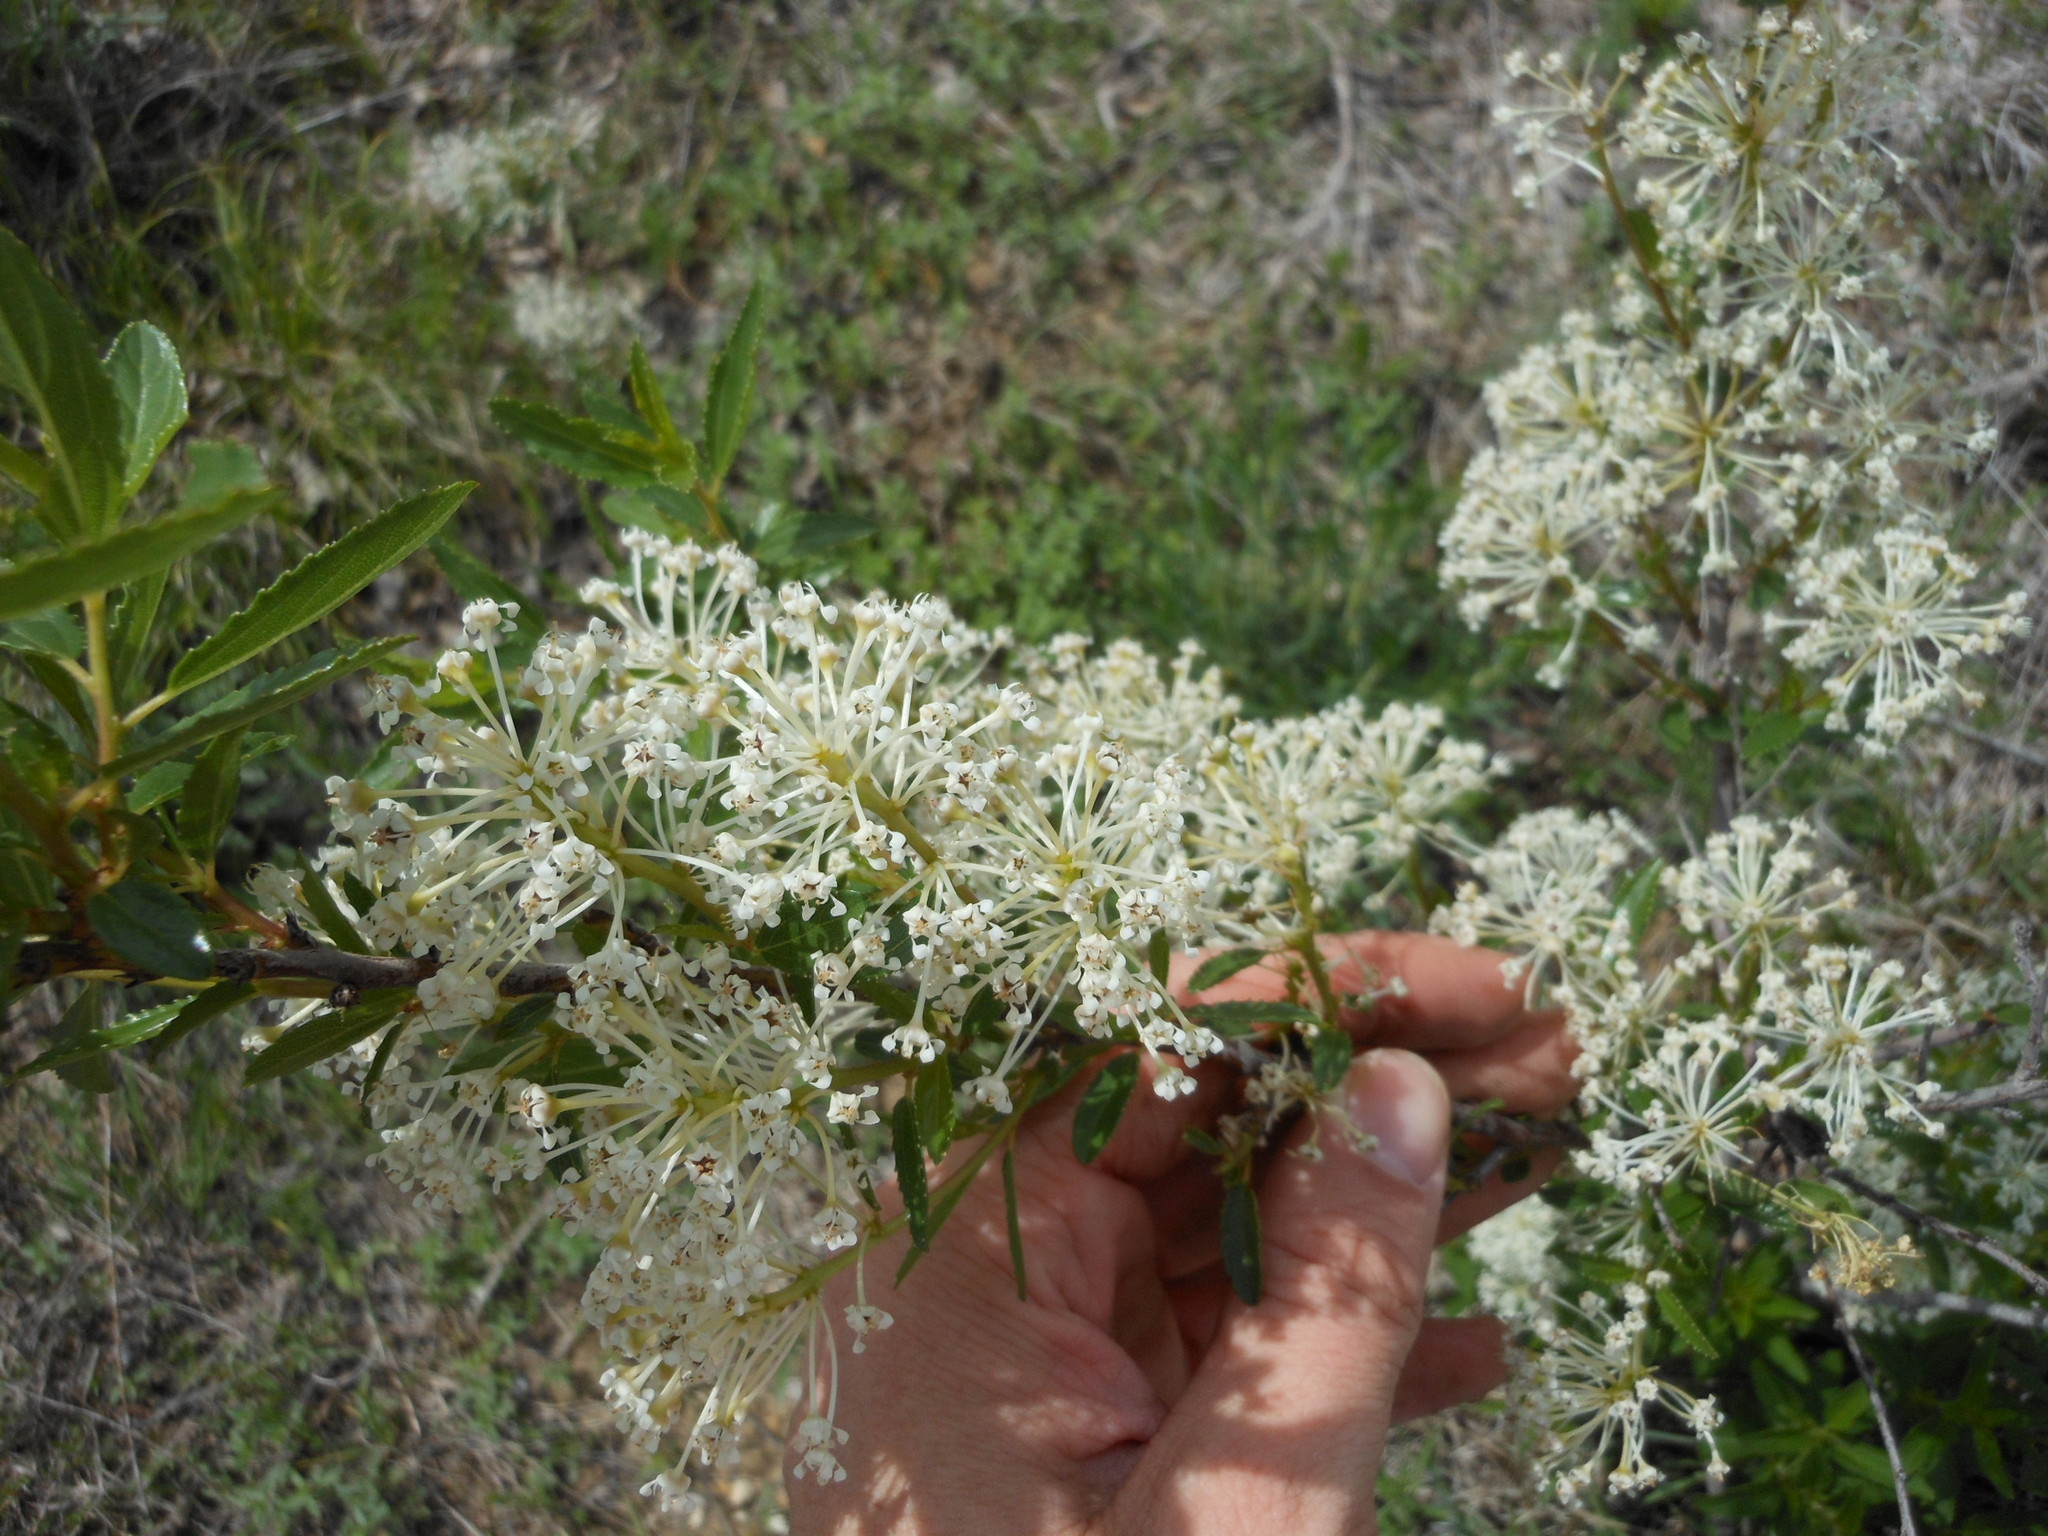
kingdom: Plantae
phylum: Tracheophyta
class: Magnoliopsida
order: Rosales
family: Rhamnaceae
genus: Ceanothus
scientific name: Ceanothus herbaceus
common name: Inland ceanothus
